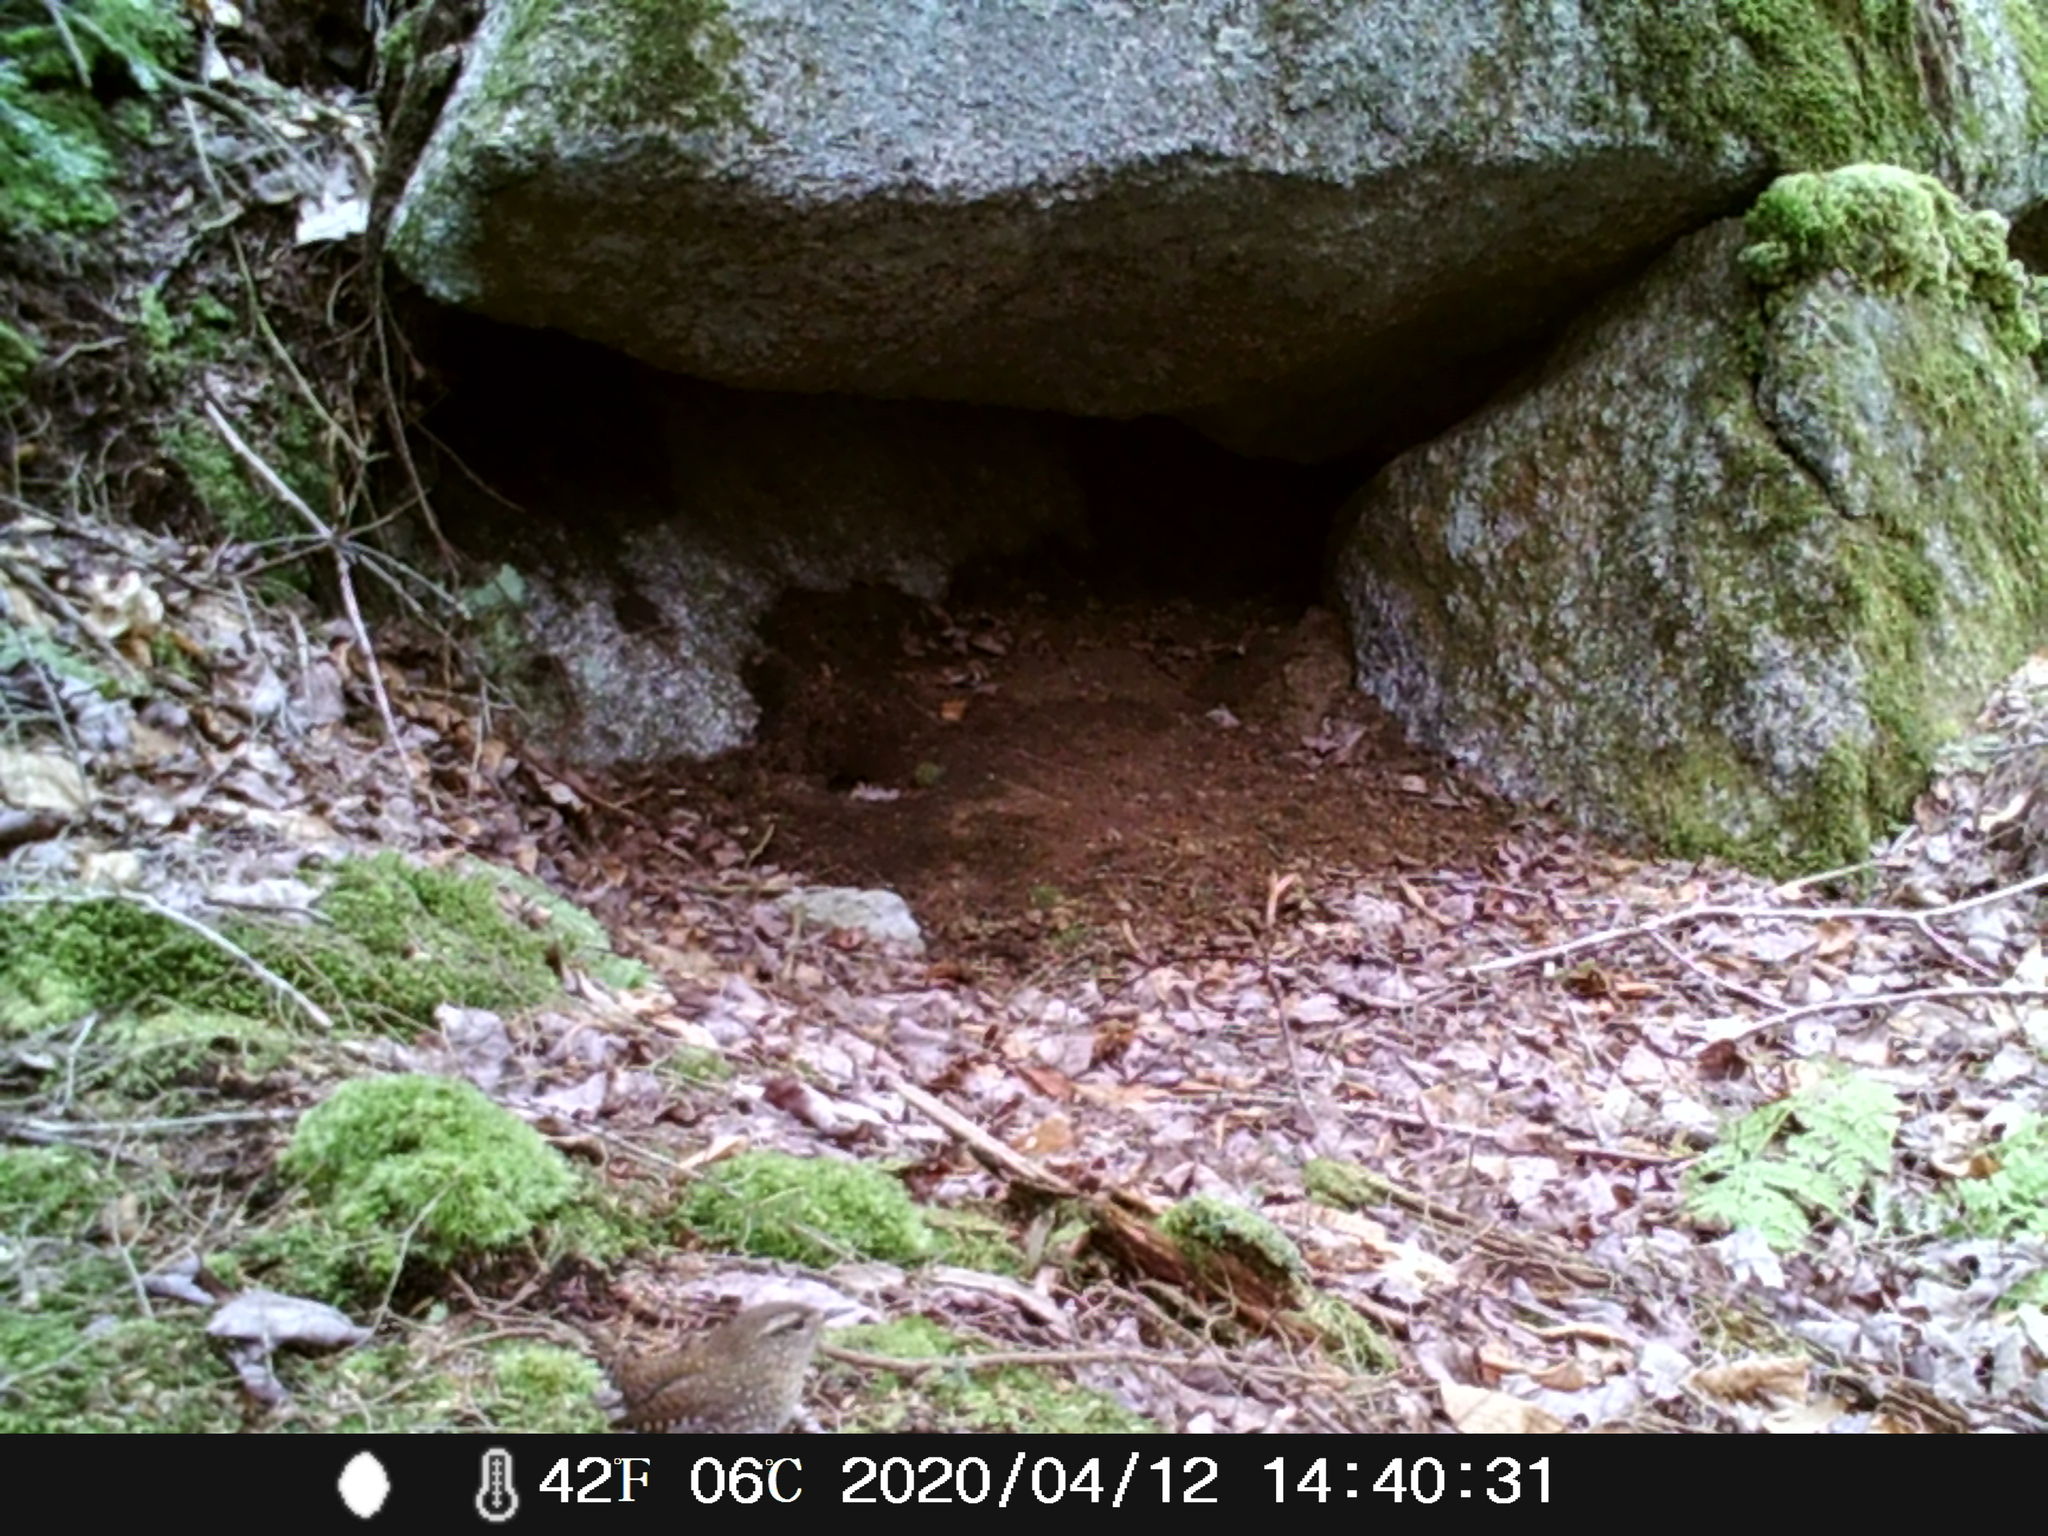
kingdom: Animalia
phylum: Chordata
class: Aves
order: Passeriformes
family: Troglodytidae
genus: Troglodytes
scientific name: Troglodytes hiemalis
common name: Winter wren
